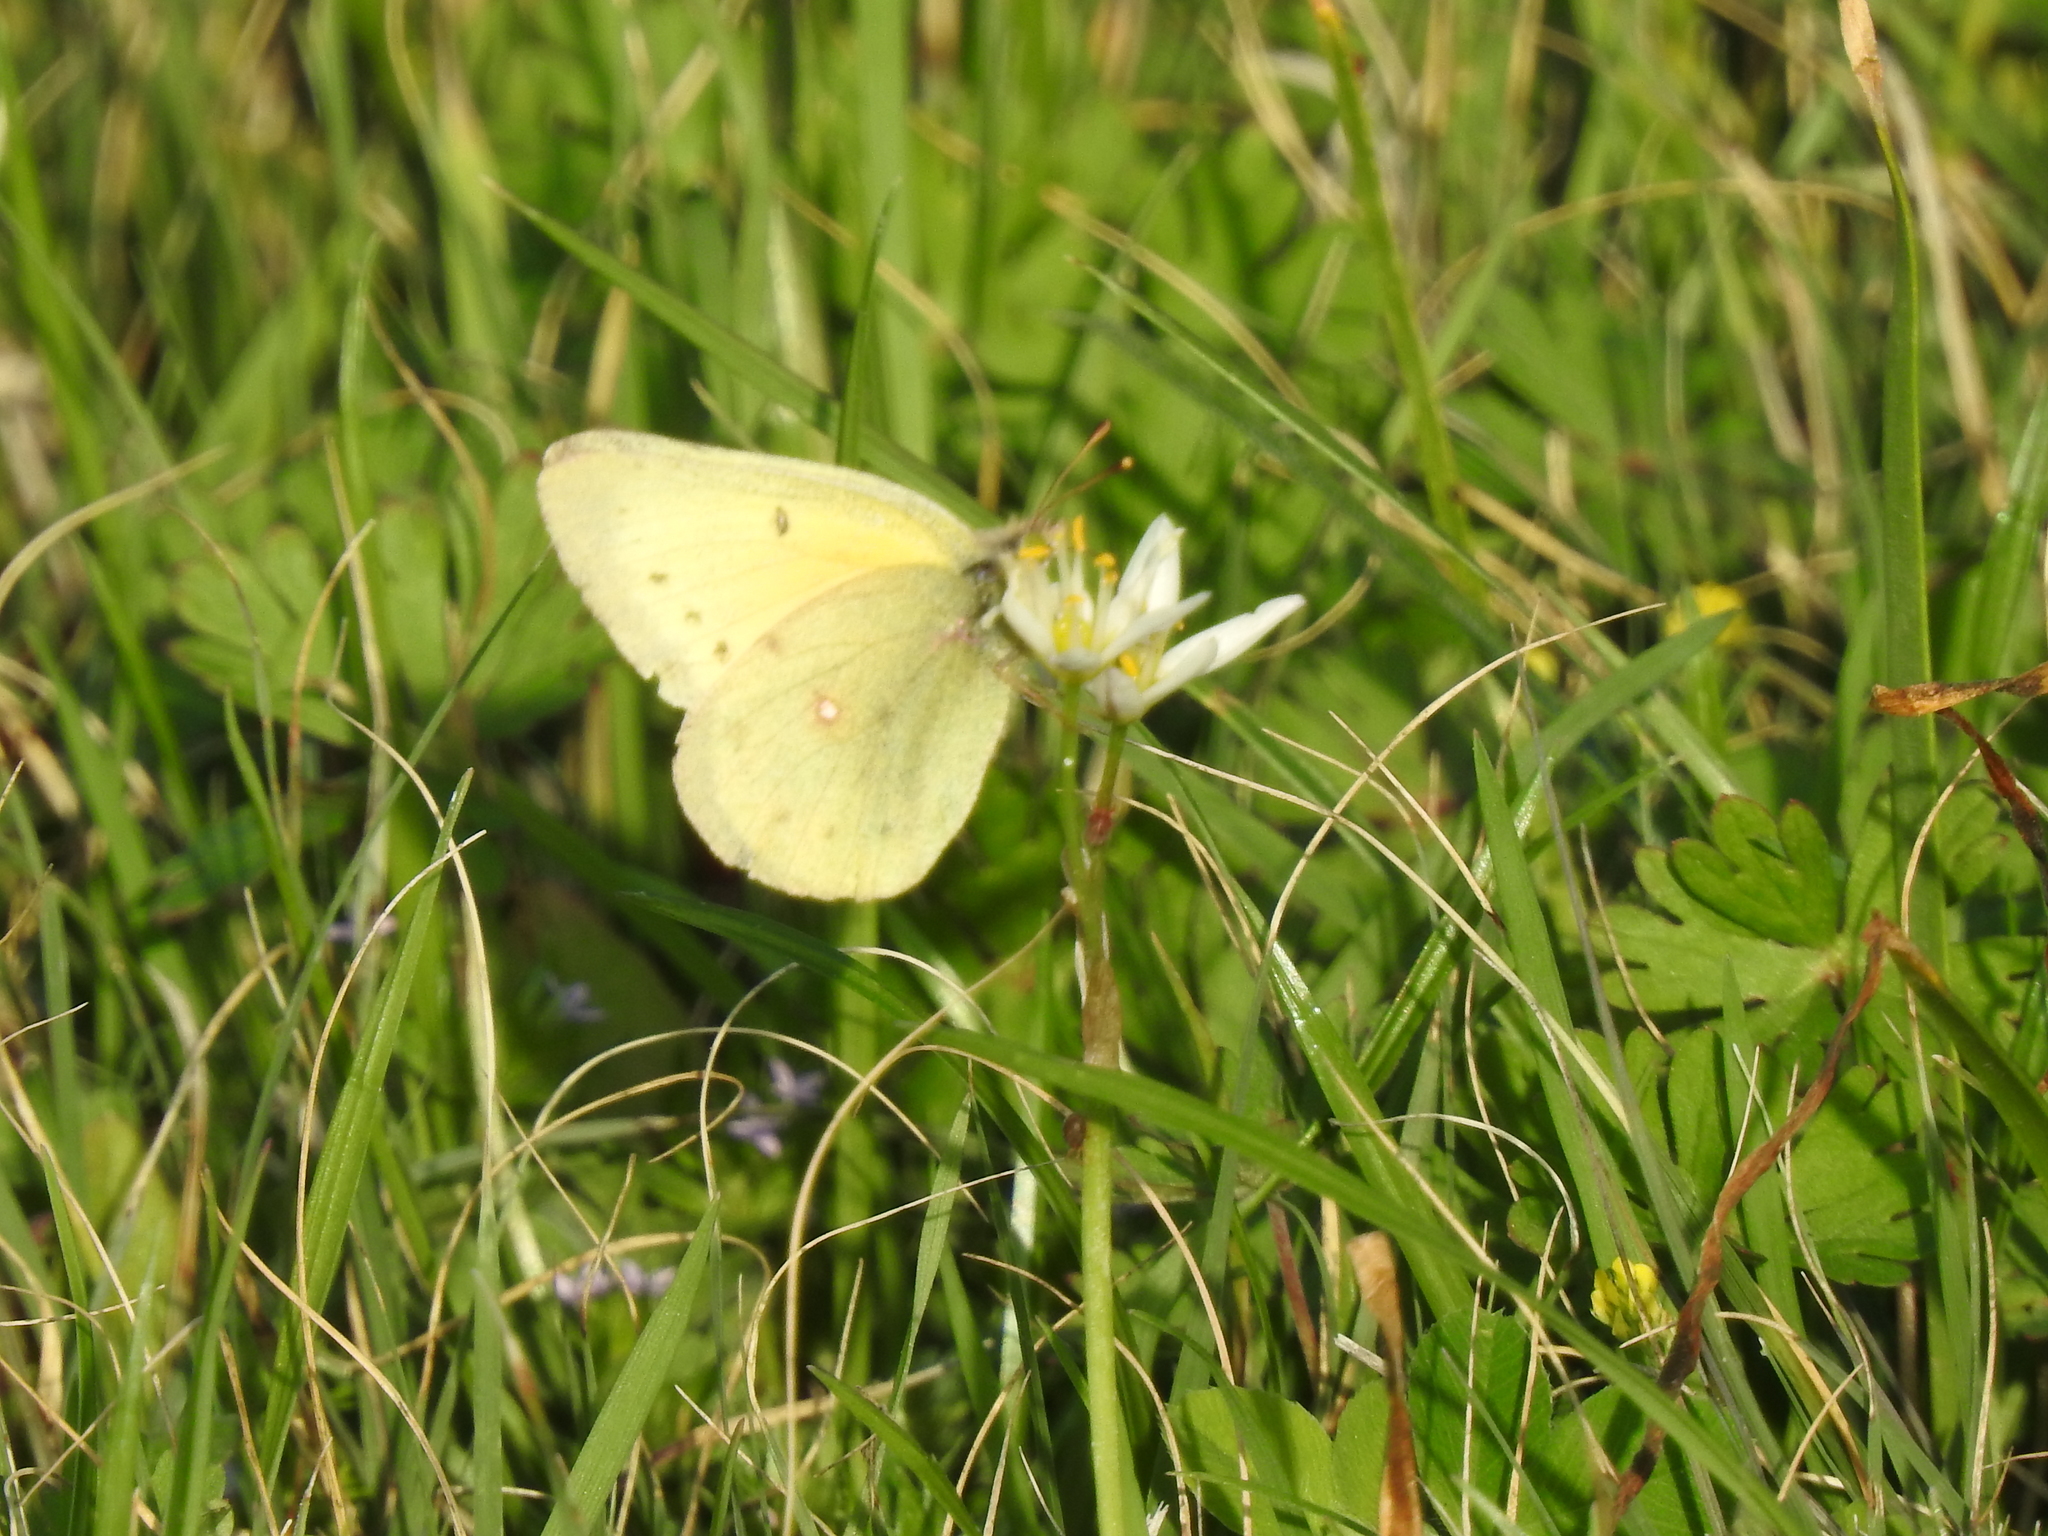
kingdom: Animalia
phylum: Arthropoda
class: Insecta
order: Lepidoptera
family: Pieridae
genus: Colias
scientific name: Colias eurytheme
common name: Alfalfa butterfly
